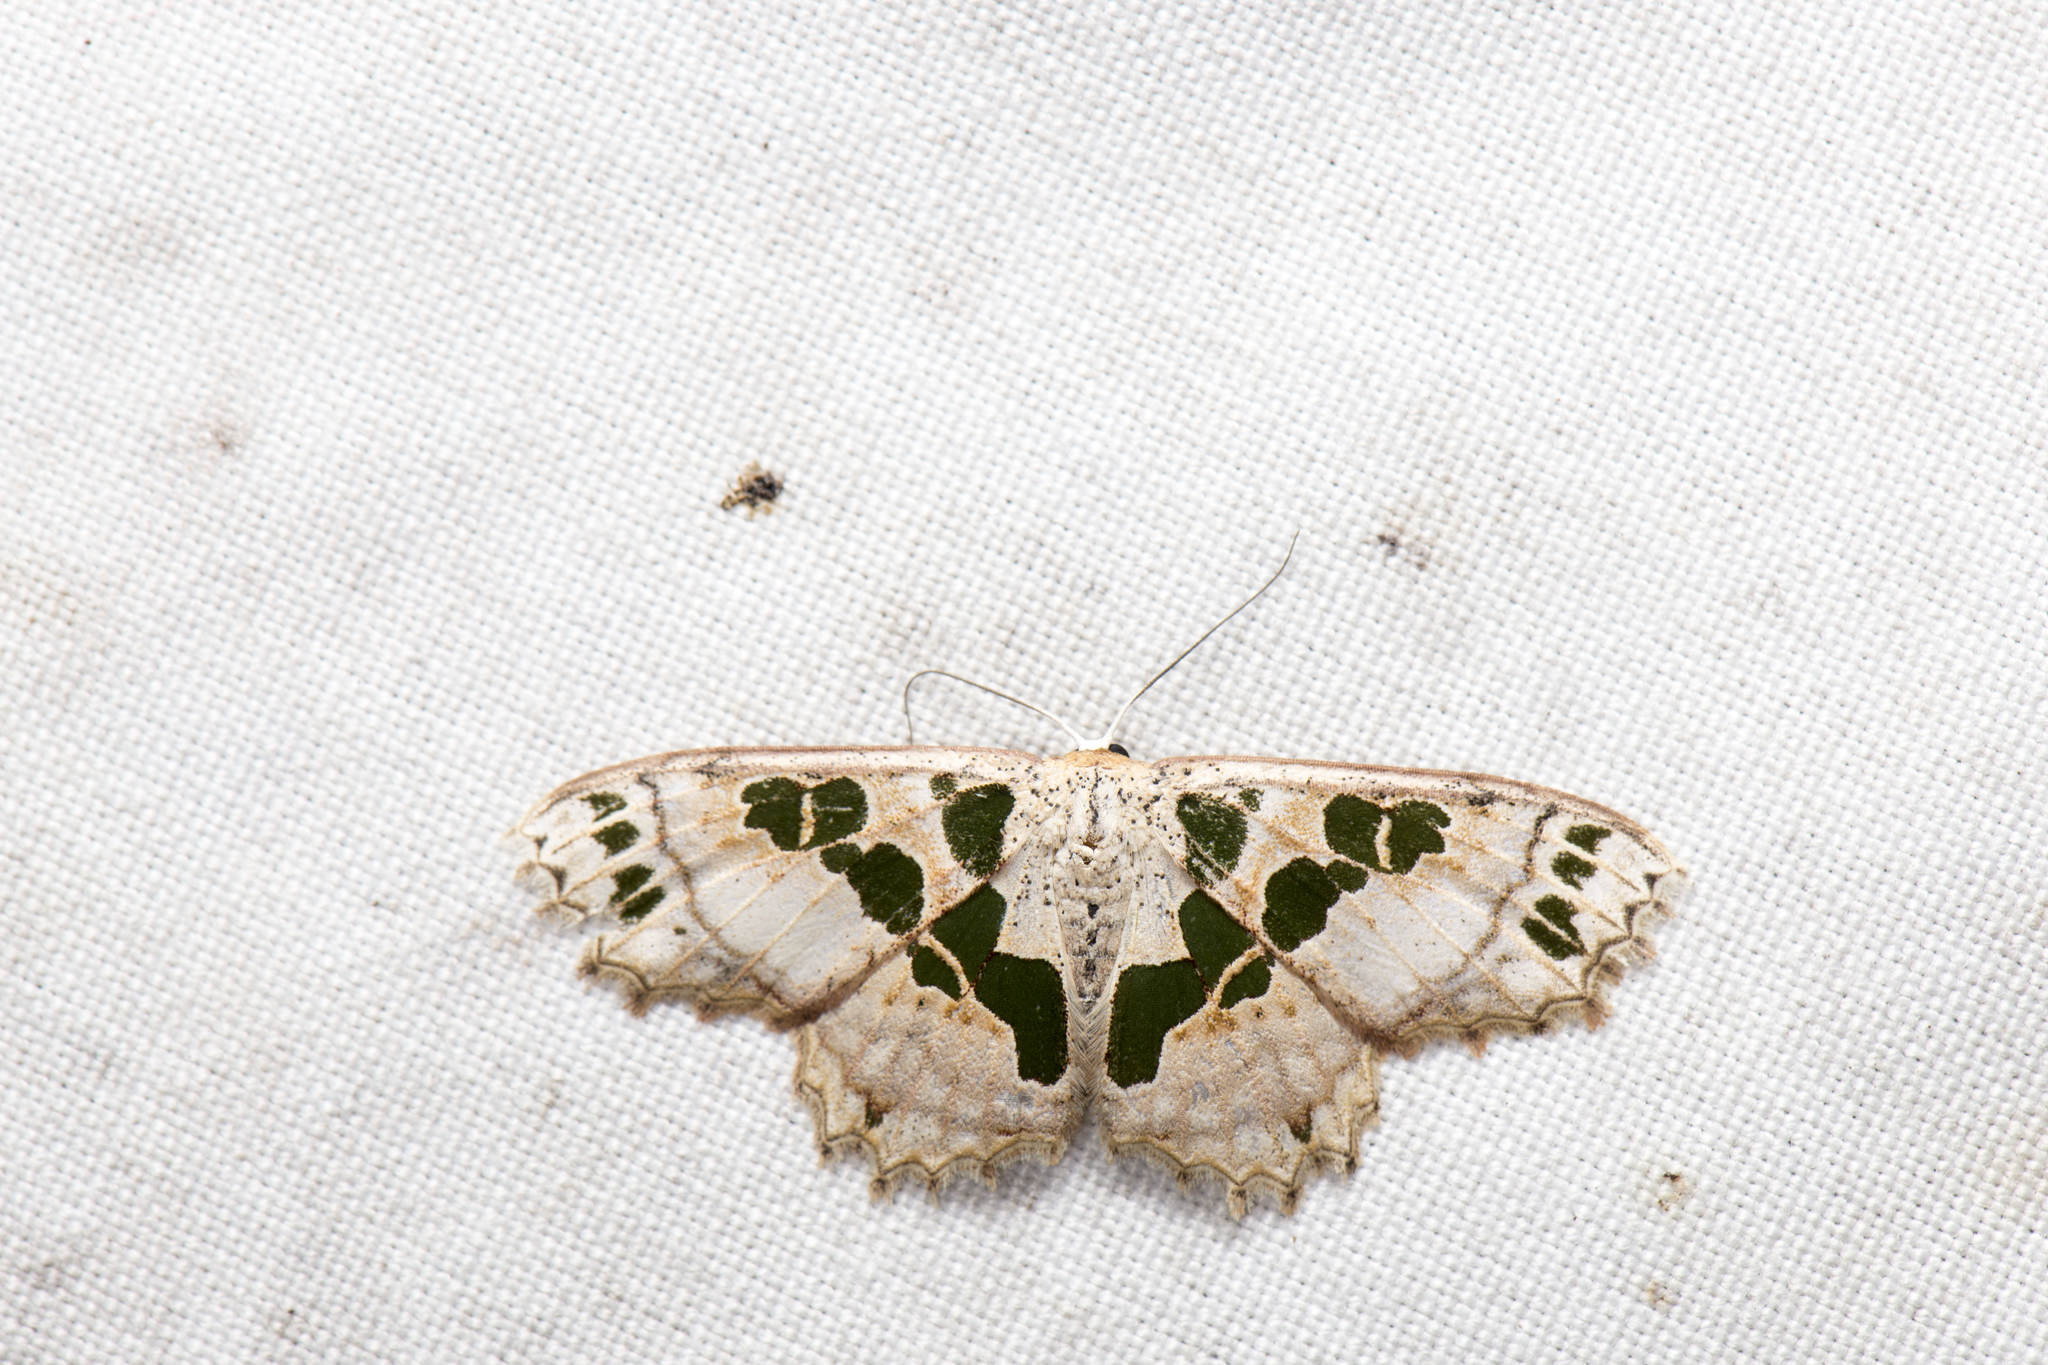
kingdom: Animalia
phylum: Arthropoda
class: Insecta
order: Lepidoptera
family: Geometridae
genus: Scopula
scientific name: Scopula divisaria
